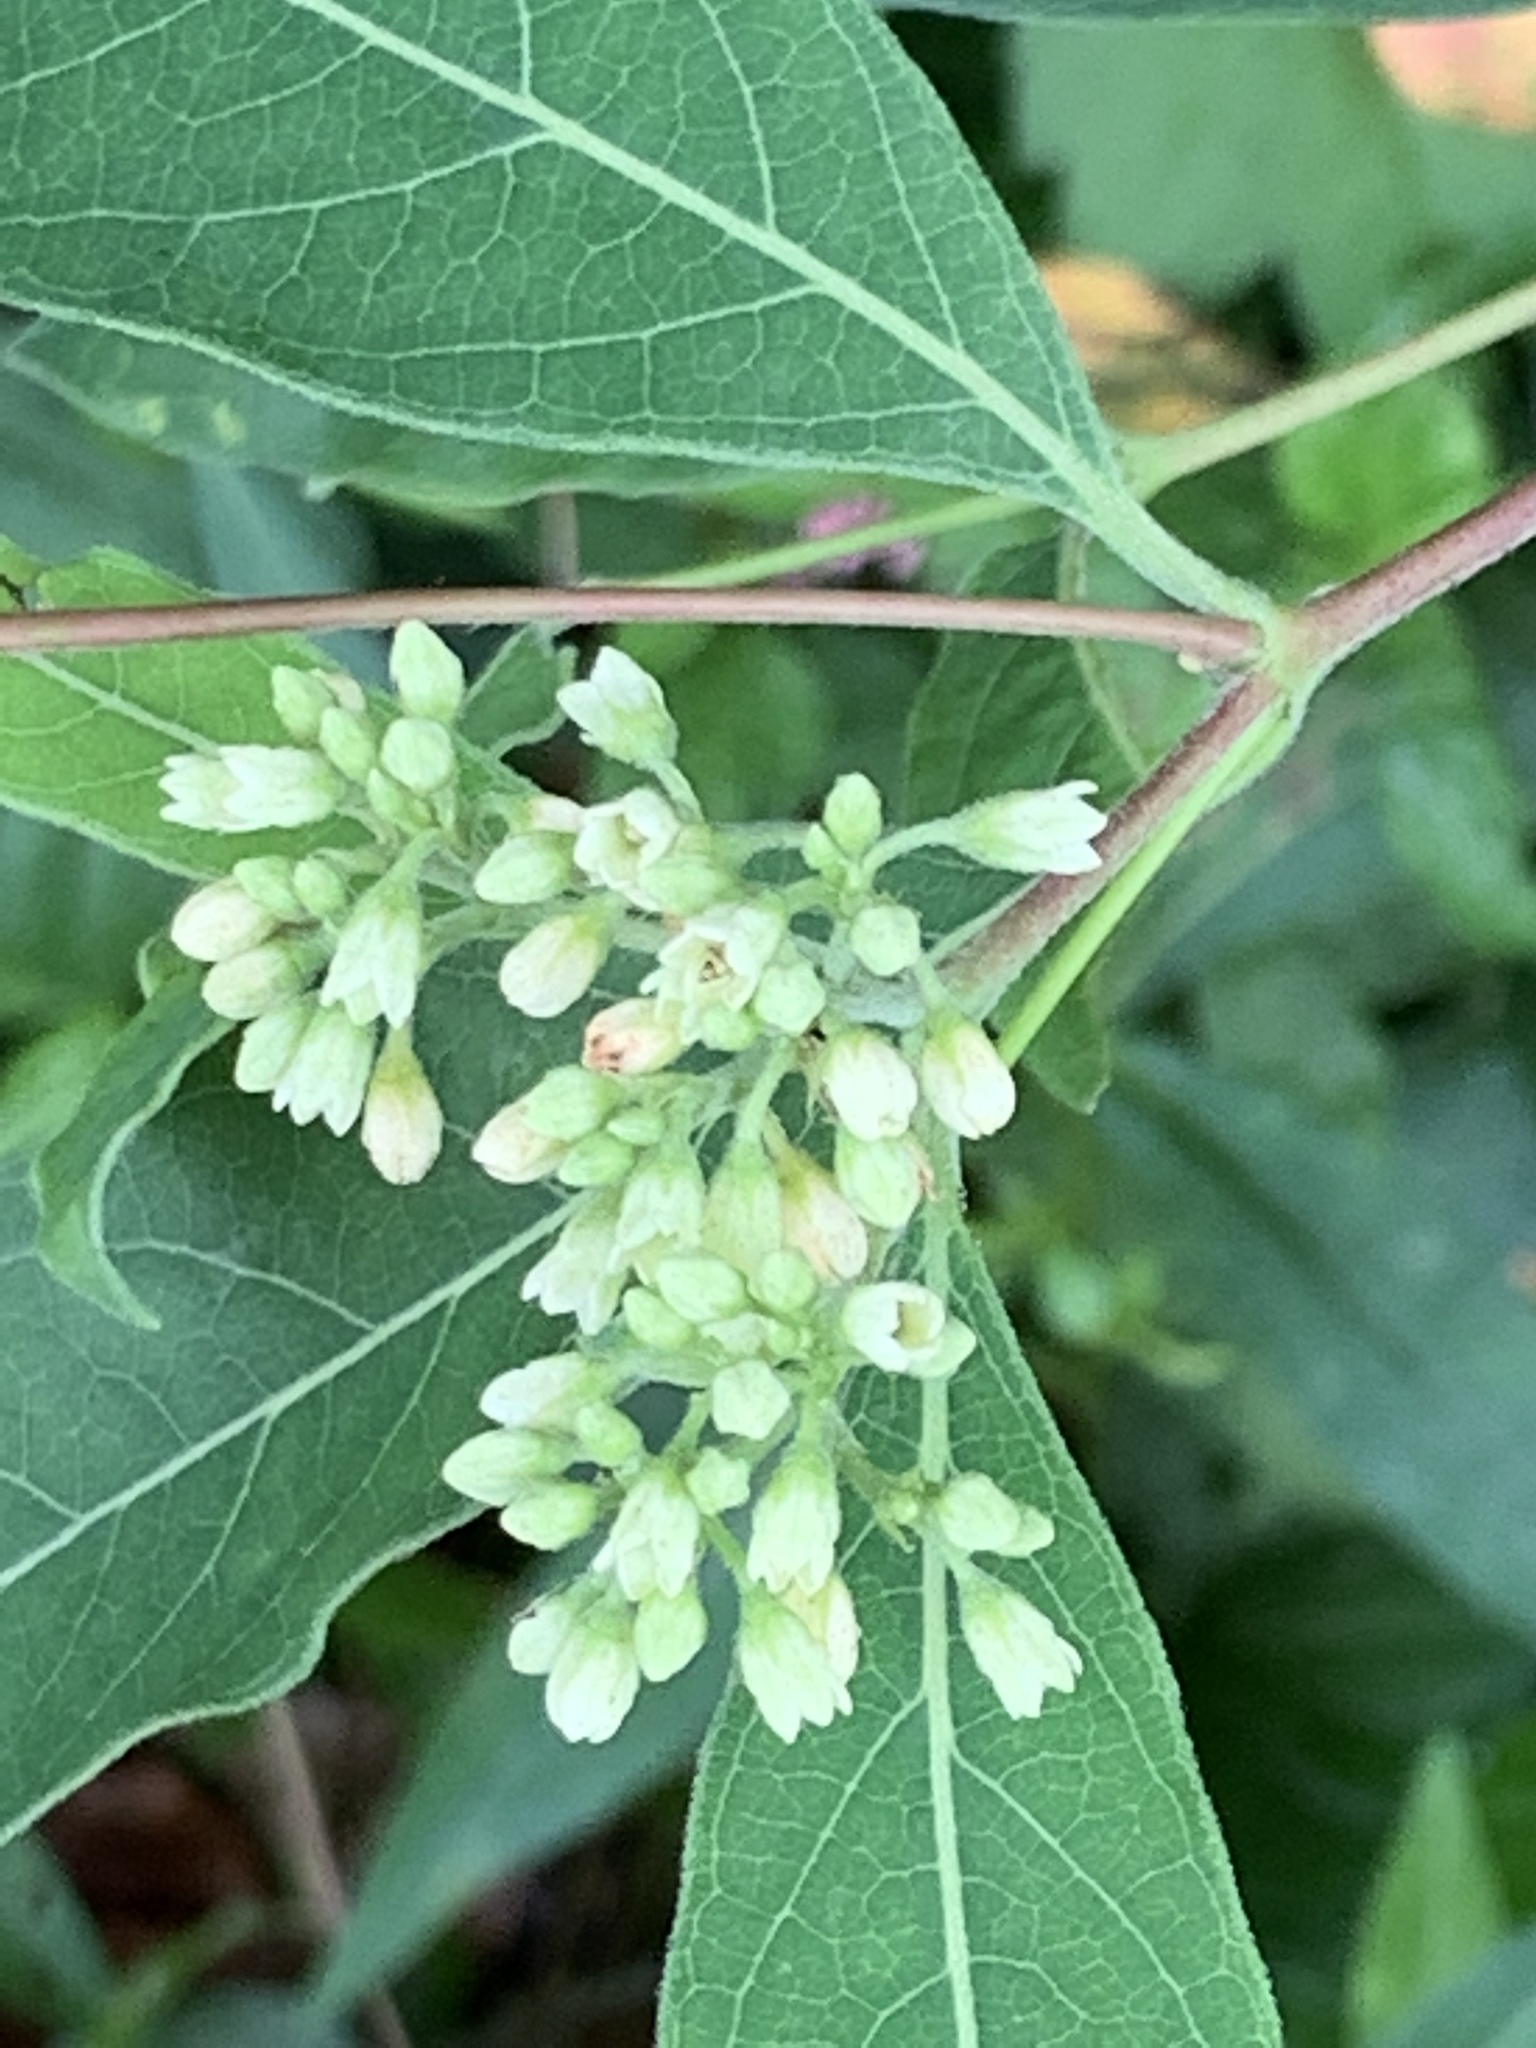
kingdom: Plantae
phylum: Tracheophyta
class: Magnoliopsida
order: Gentianales
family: Apocynaceae
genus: Apocynum
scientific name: Apocynum cannabinum
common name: Hemp dogbane
